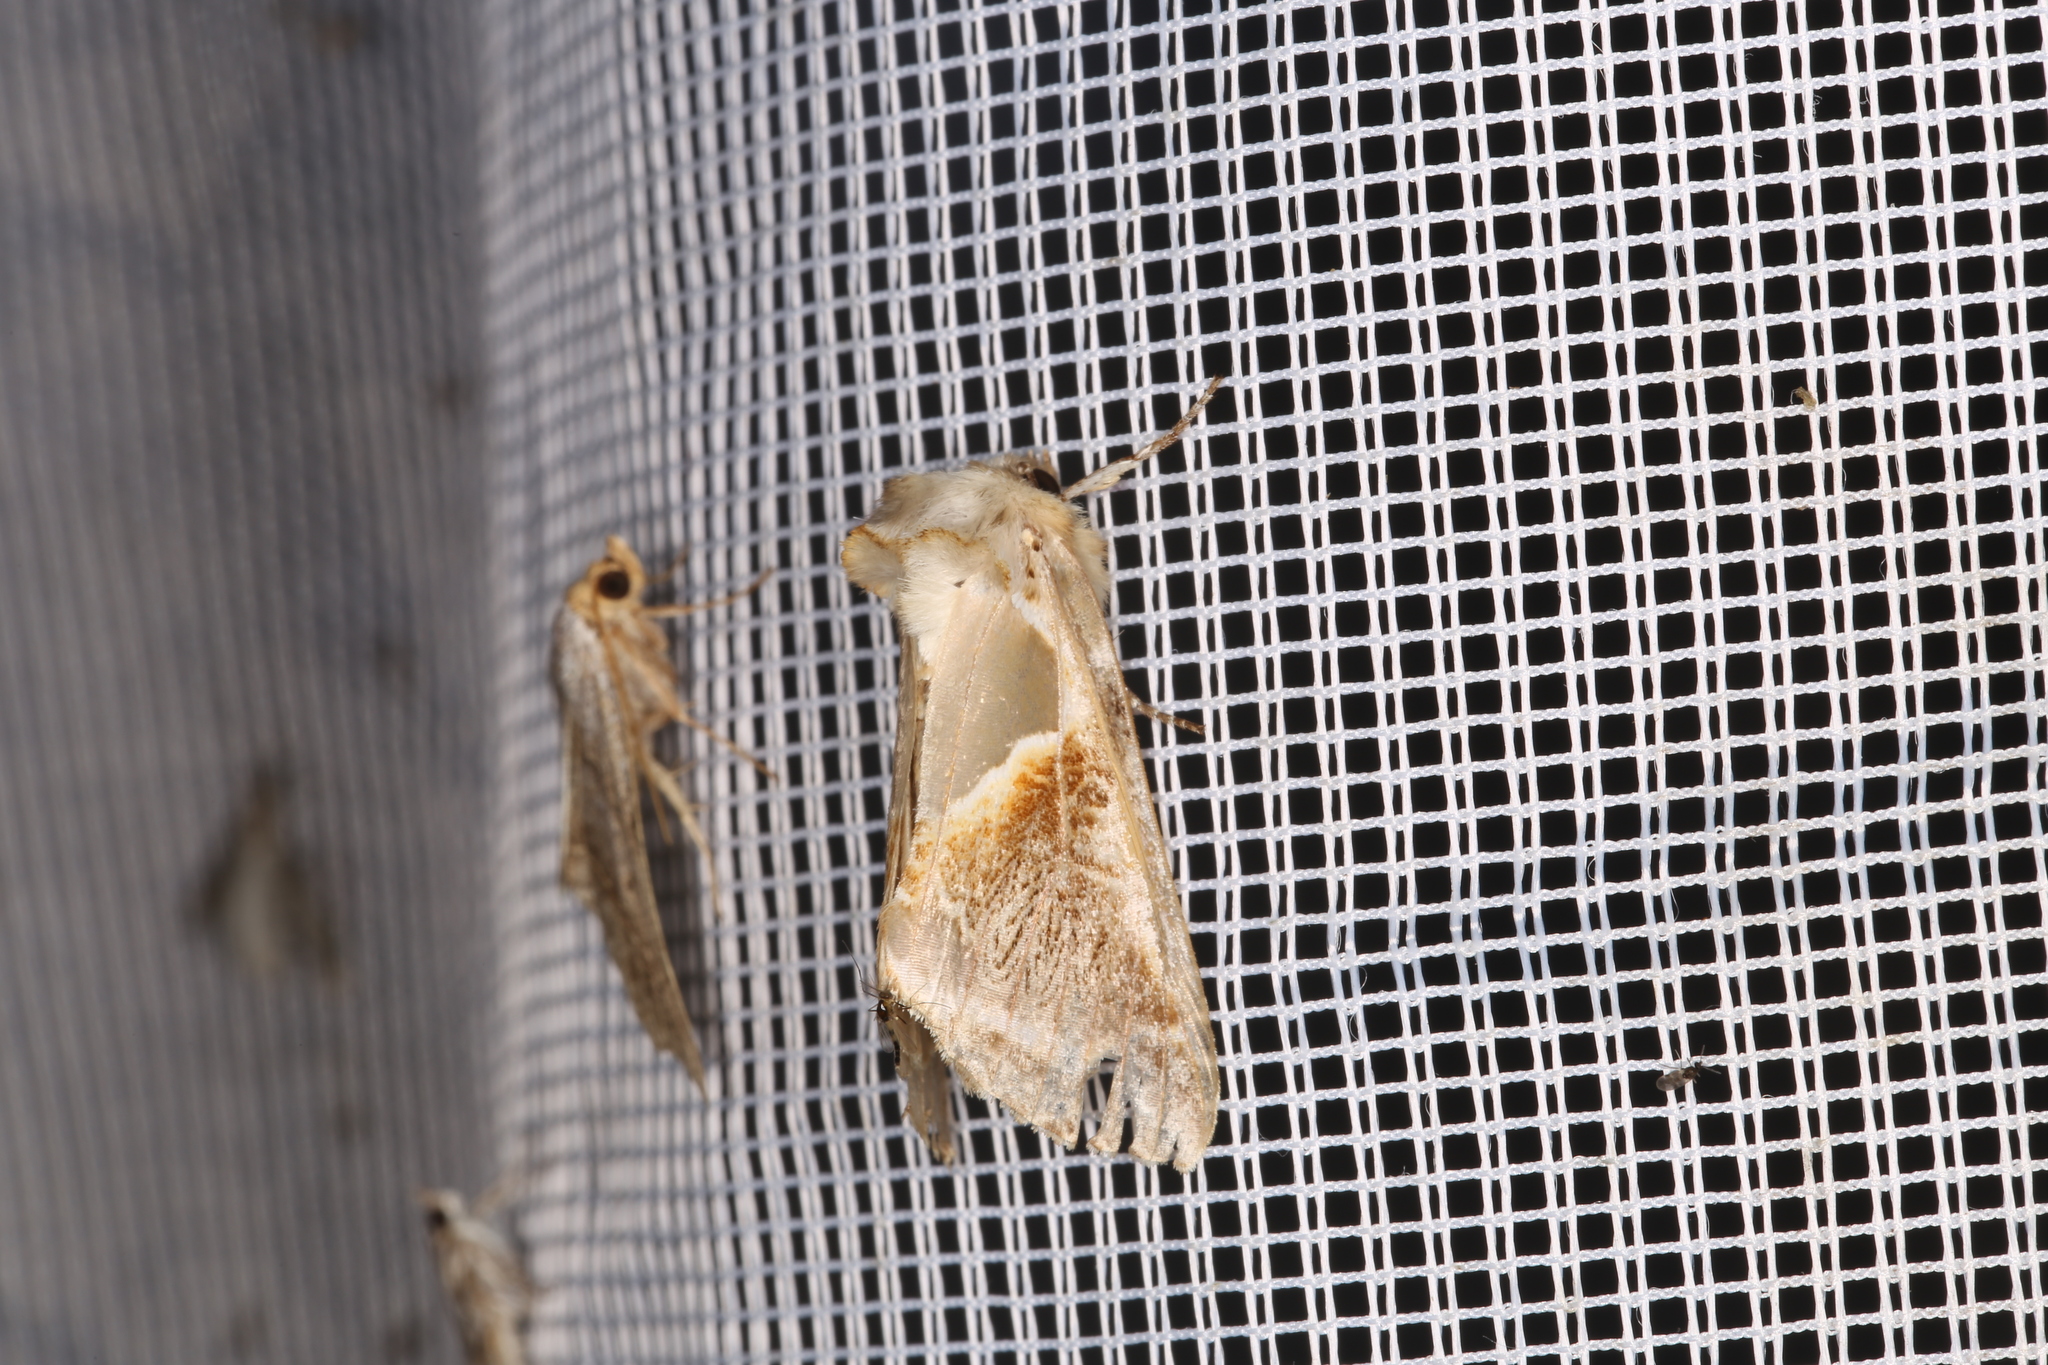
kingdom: Animalia
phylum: Arthropoda
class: Insecta
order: Lepidoptera
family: Drepanidae
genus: Habrosyne
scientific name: Habrosyne pyritoides
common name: Buff arches
